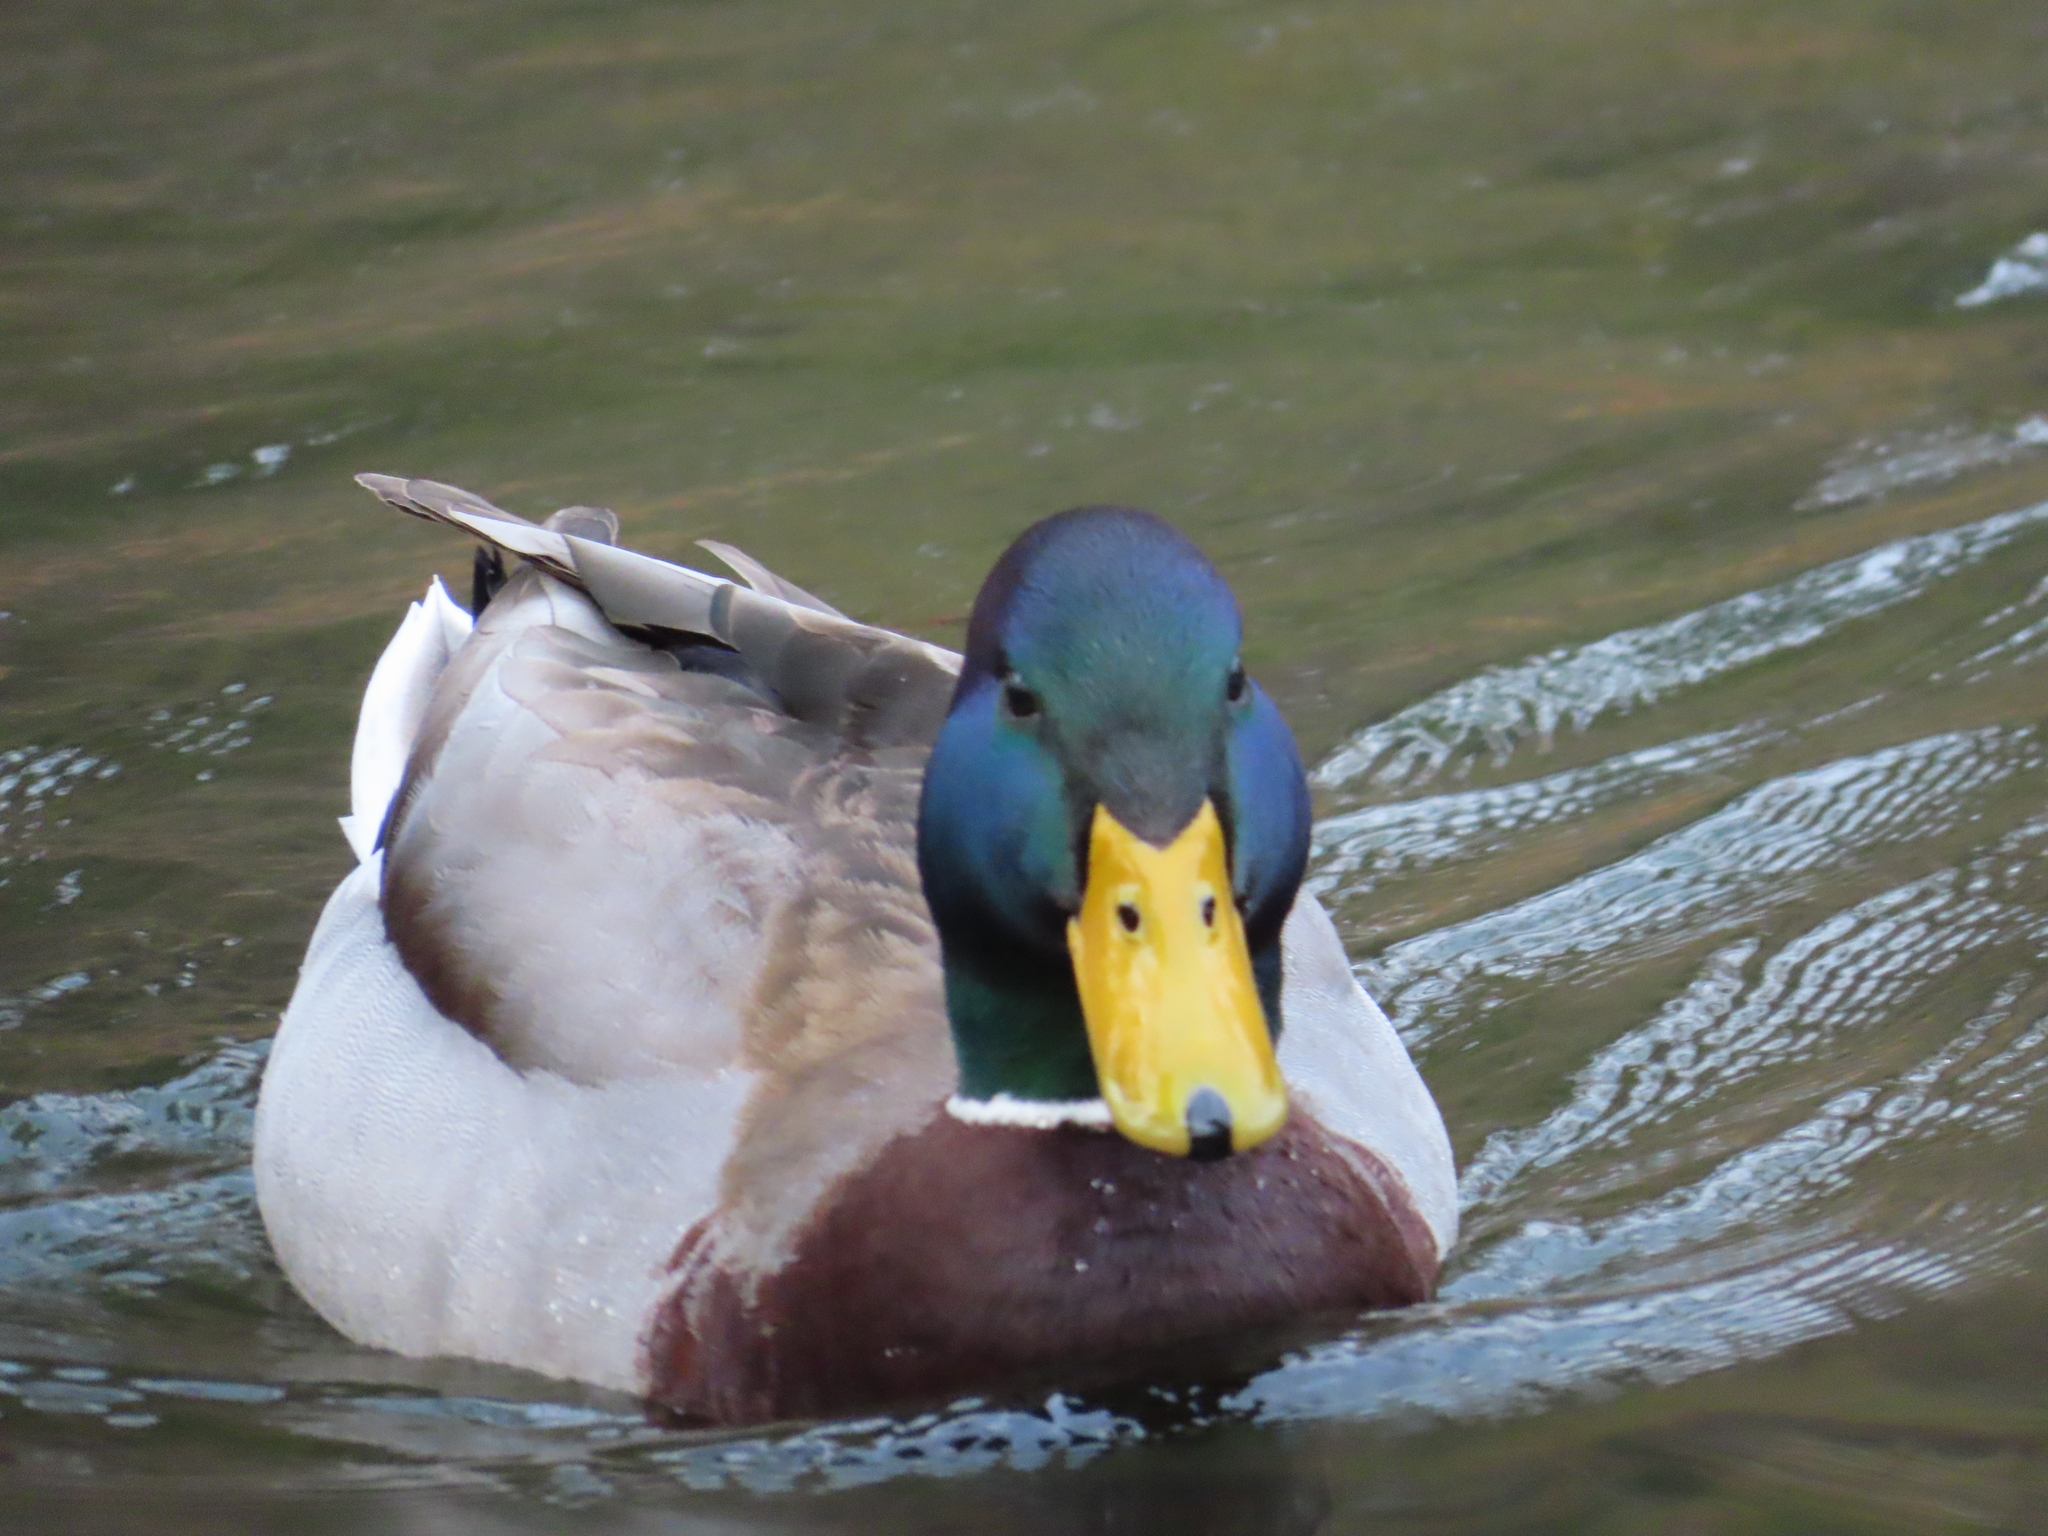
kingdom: Animalia
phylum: Chordata
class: Aves
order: Anseriformes
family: Anatidae
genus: Anas
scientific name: Anas platyrhynchos
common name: Mallard
